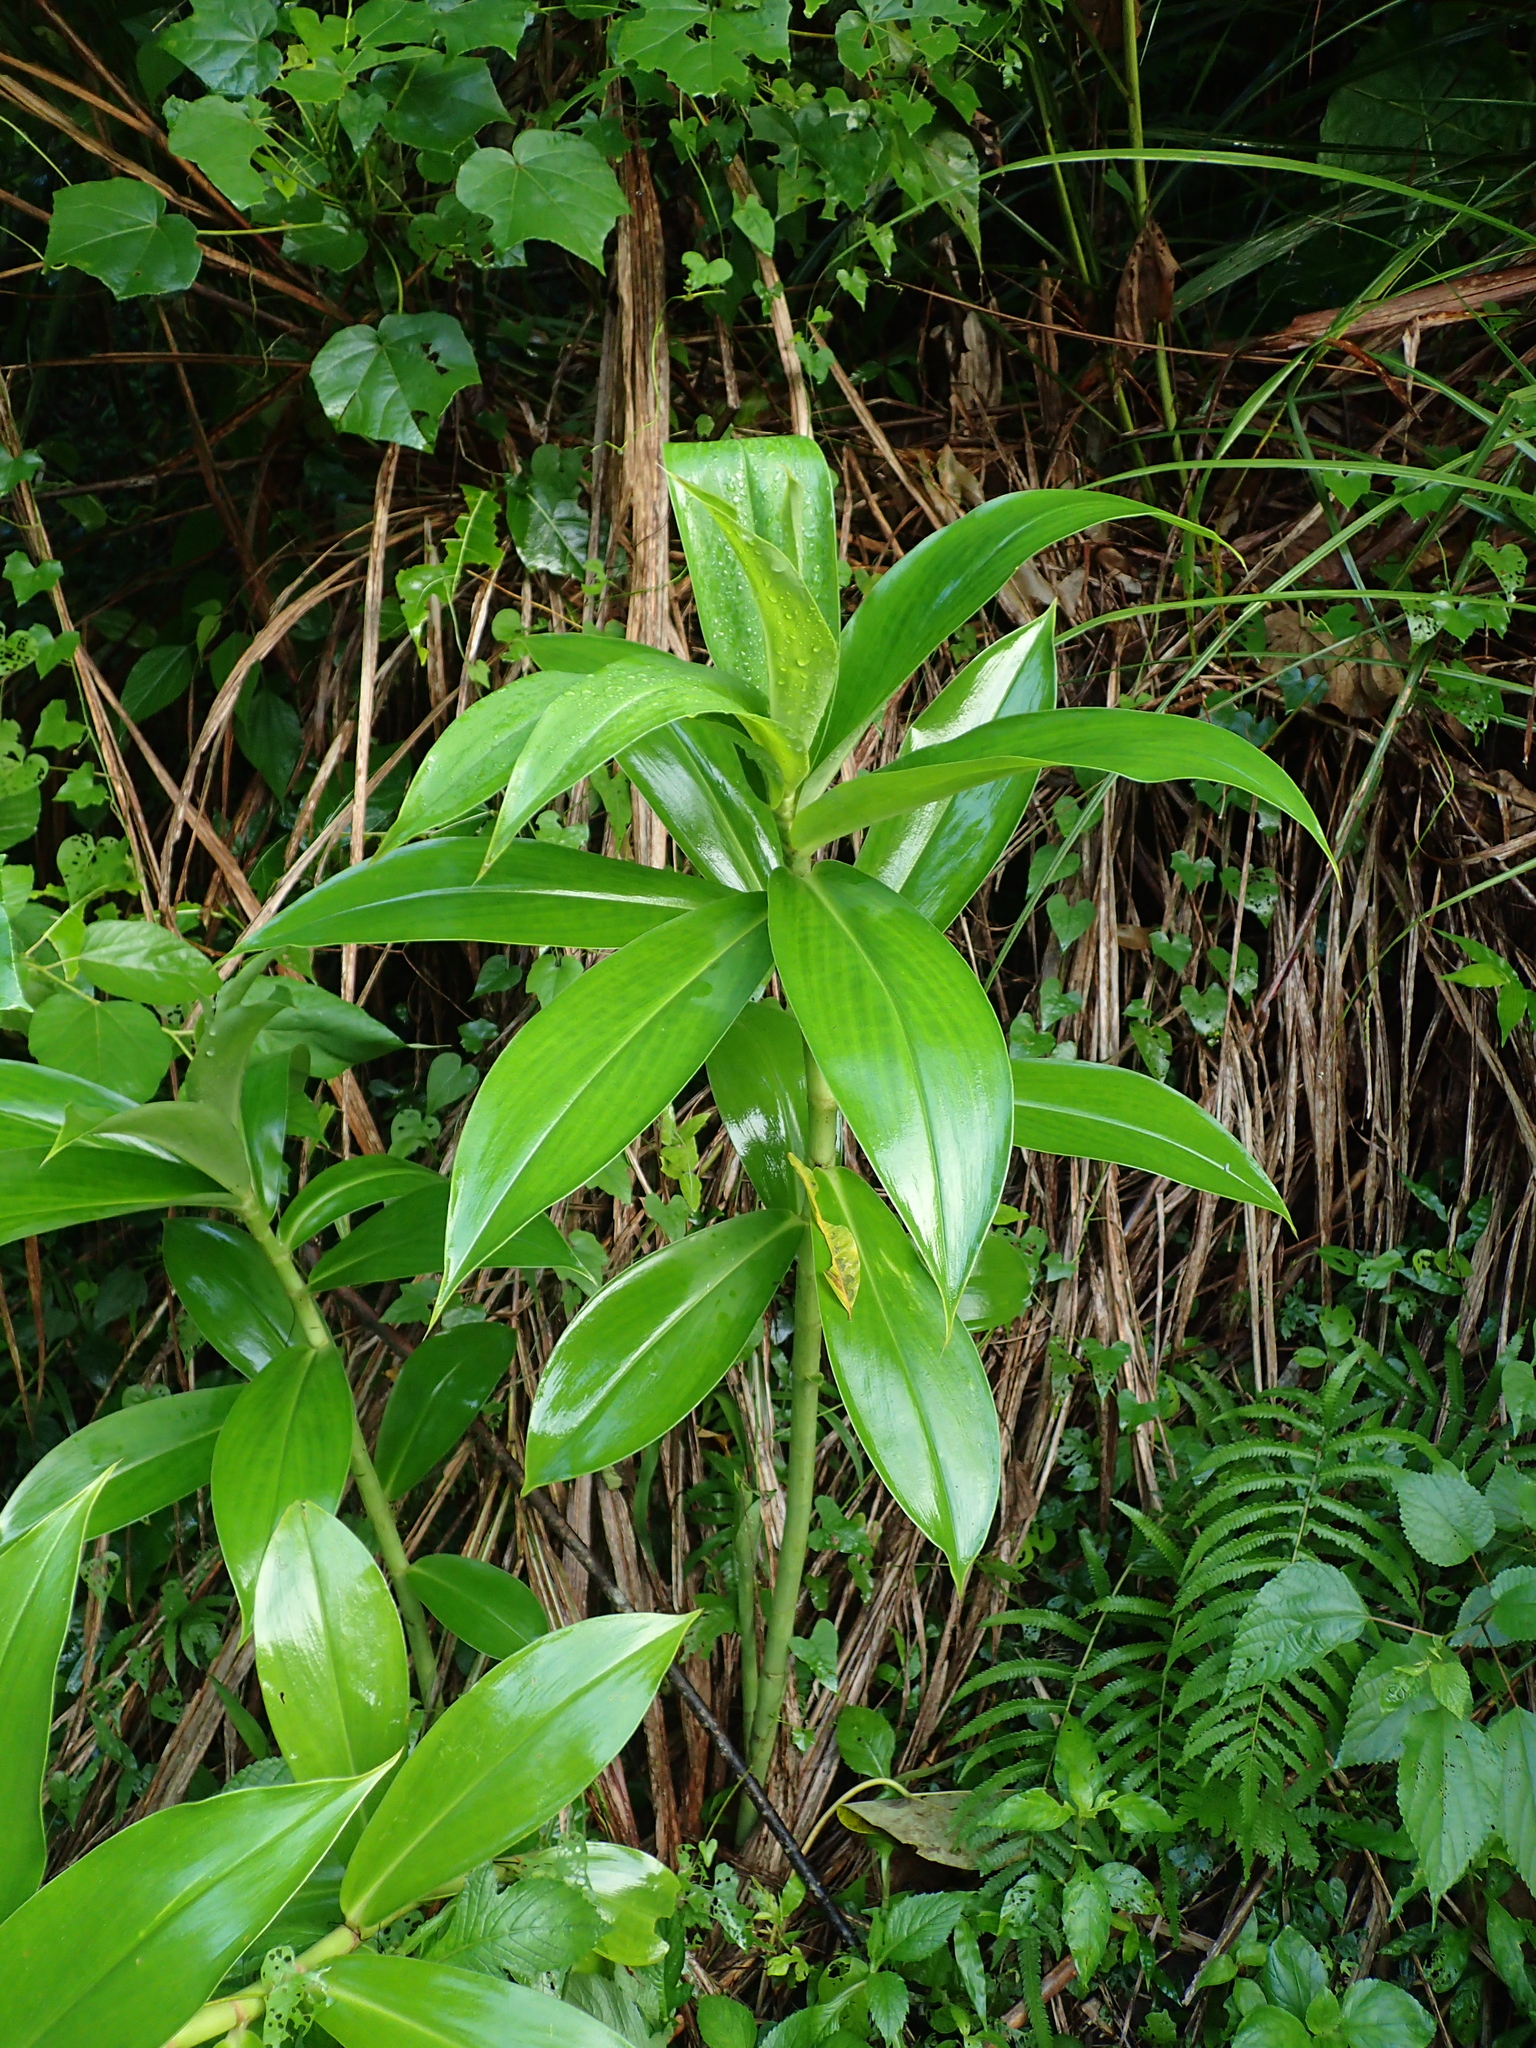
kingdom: Plantae
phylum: Tracheophyta
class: Liliopsida
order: Zingiberales
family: Costaceae
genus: Hellenia
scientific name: Hellenia speciosa
